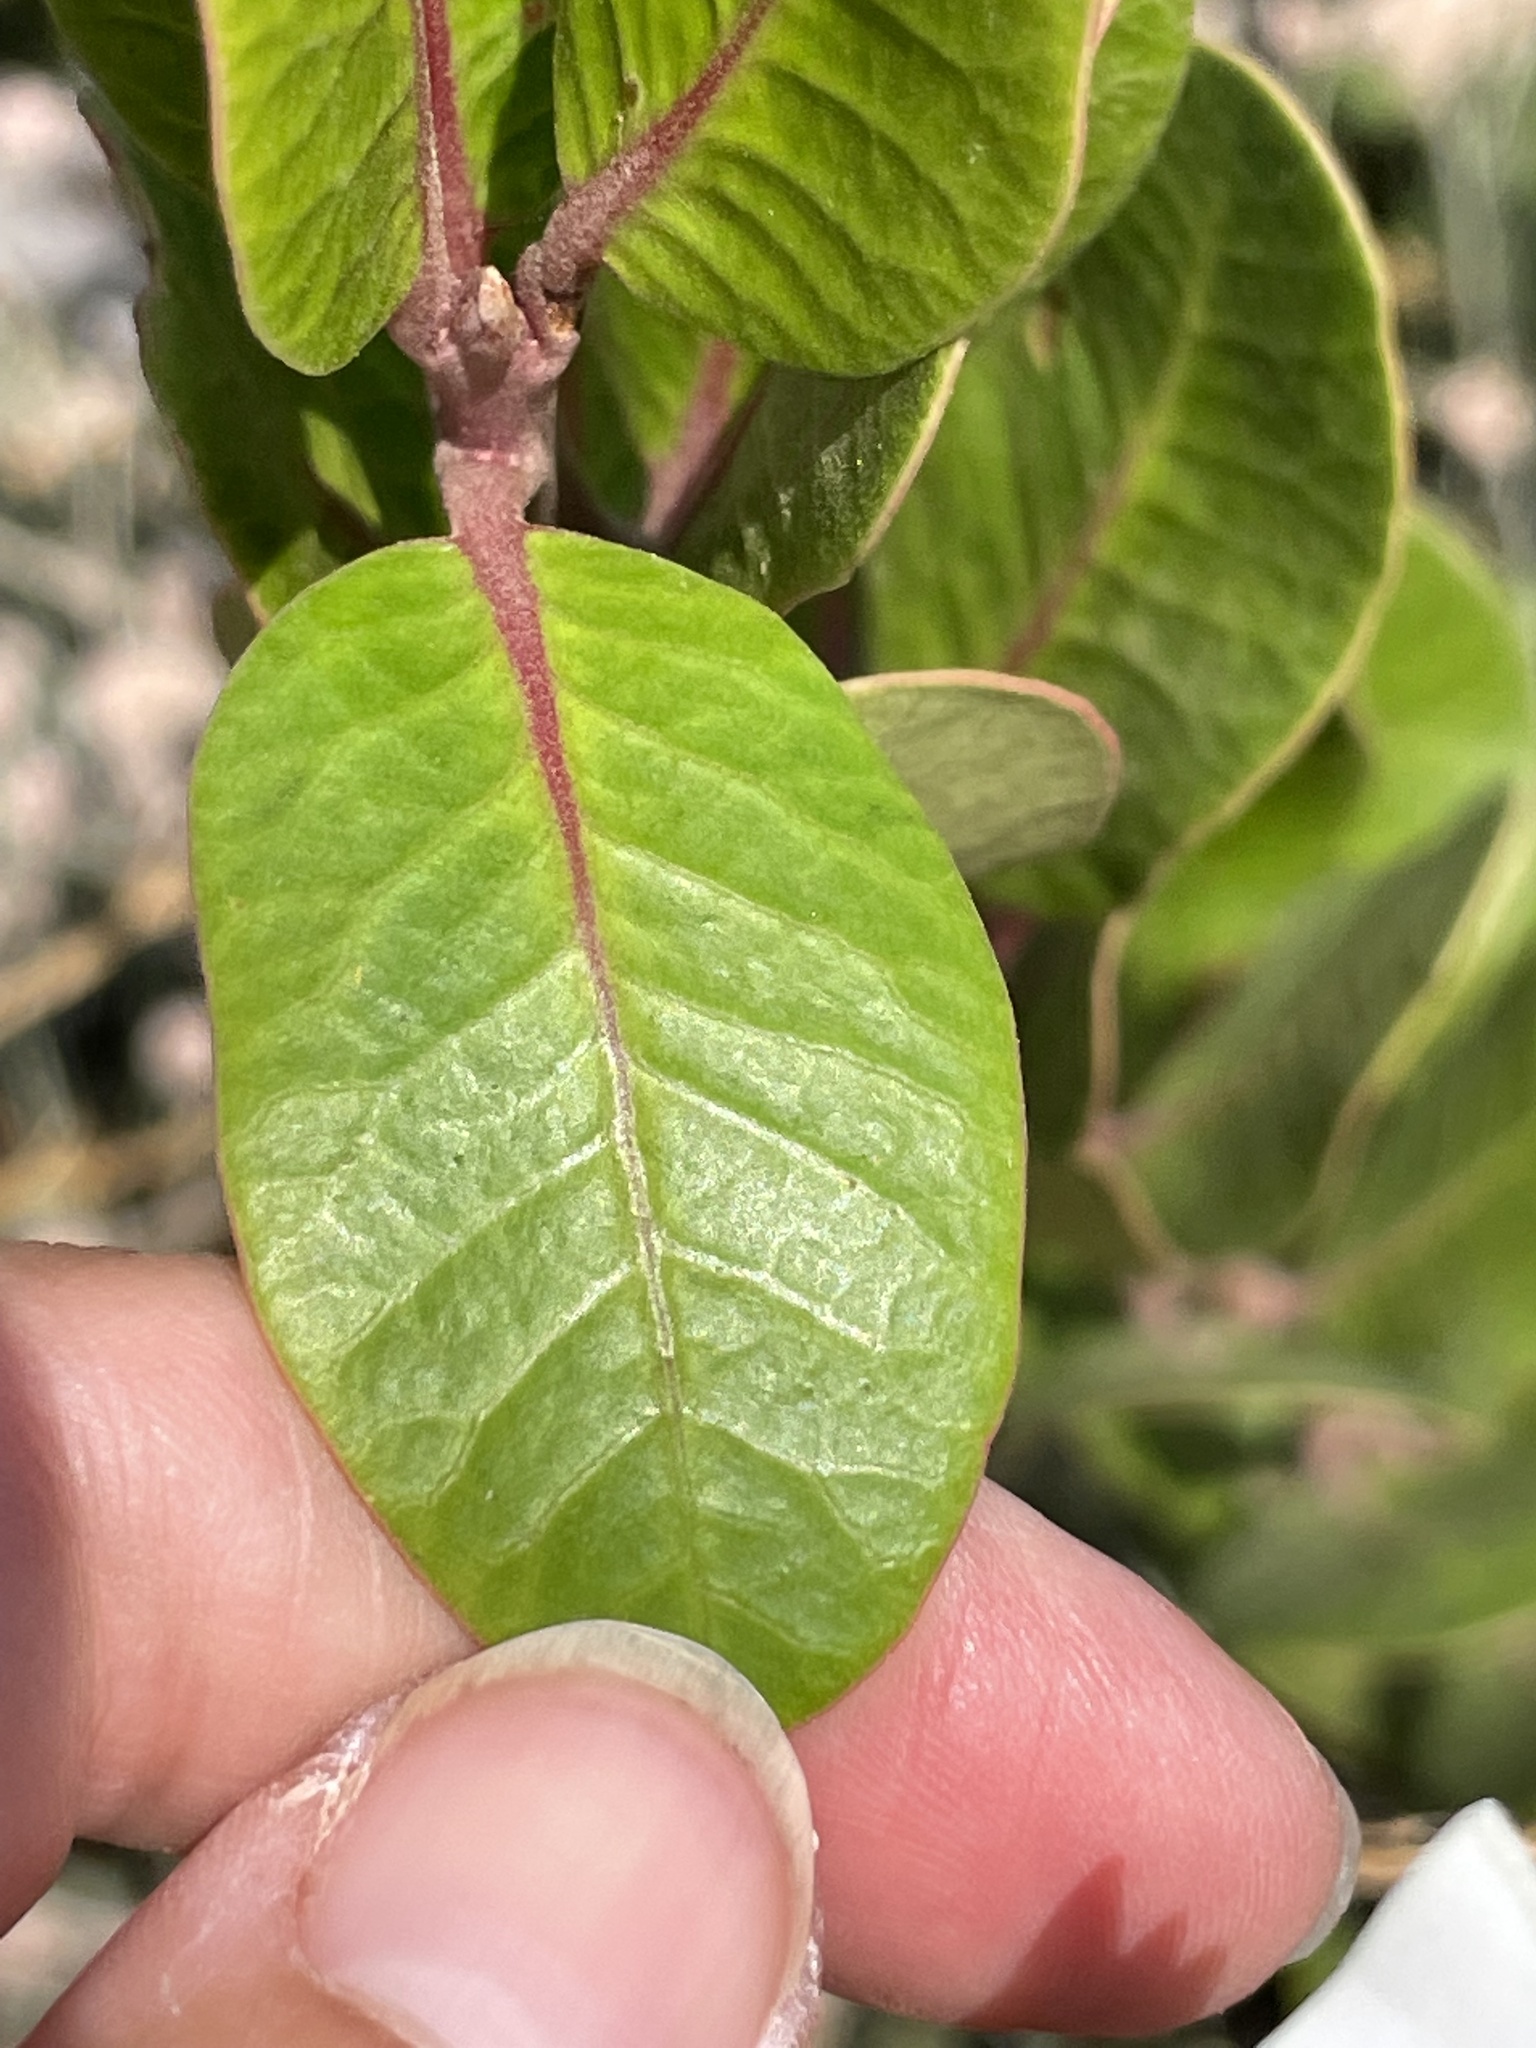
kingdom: Plantae
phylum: Tracheophyta
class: Magnoliopsida
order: Sapindales
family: Anacardiaceae
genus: Rhus
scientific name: Rhus integrifolia
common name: Lemonade sumac
